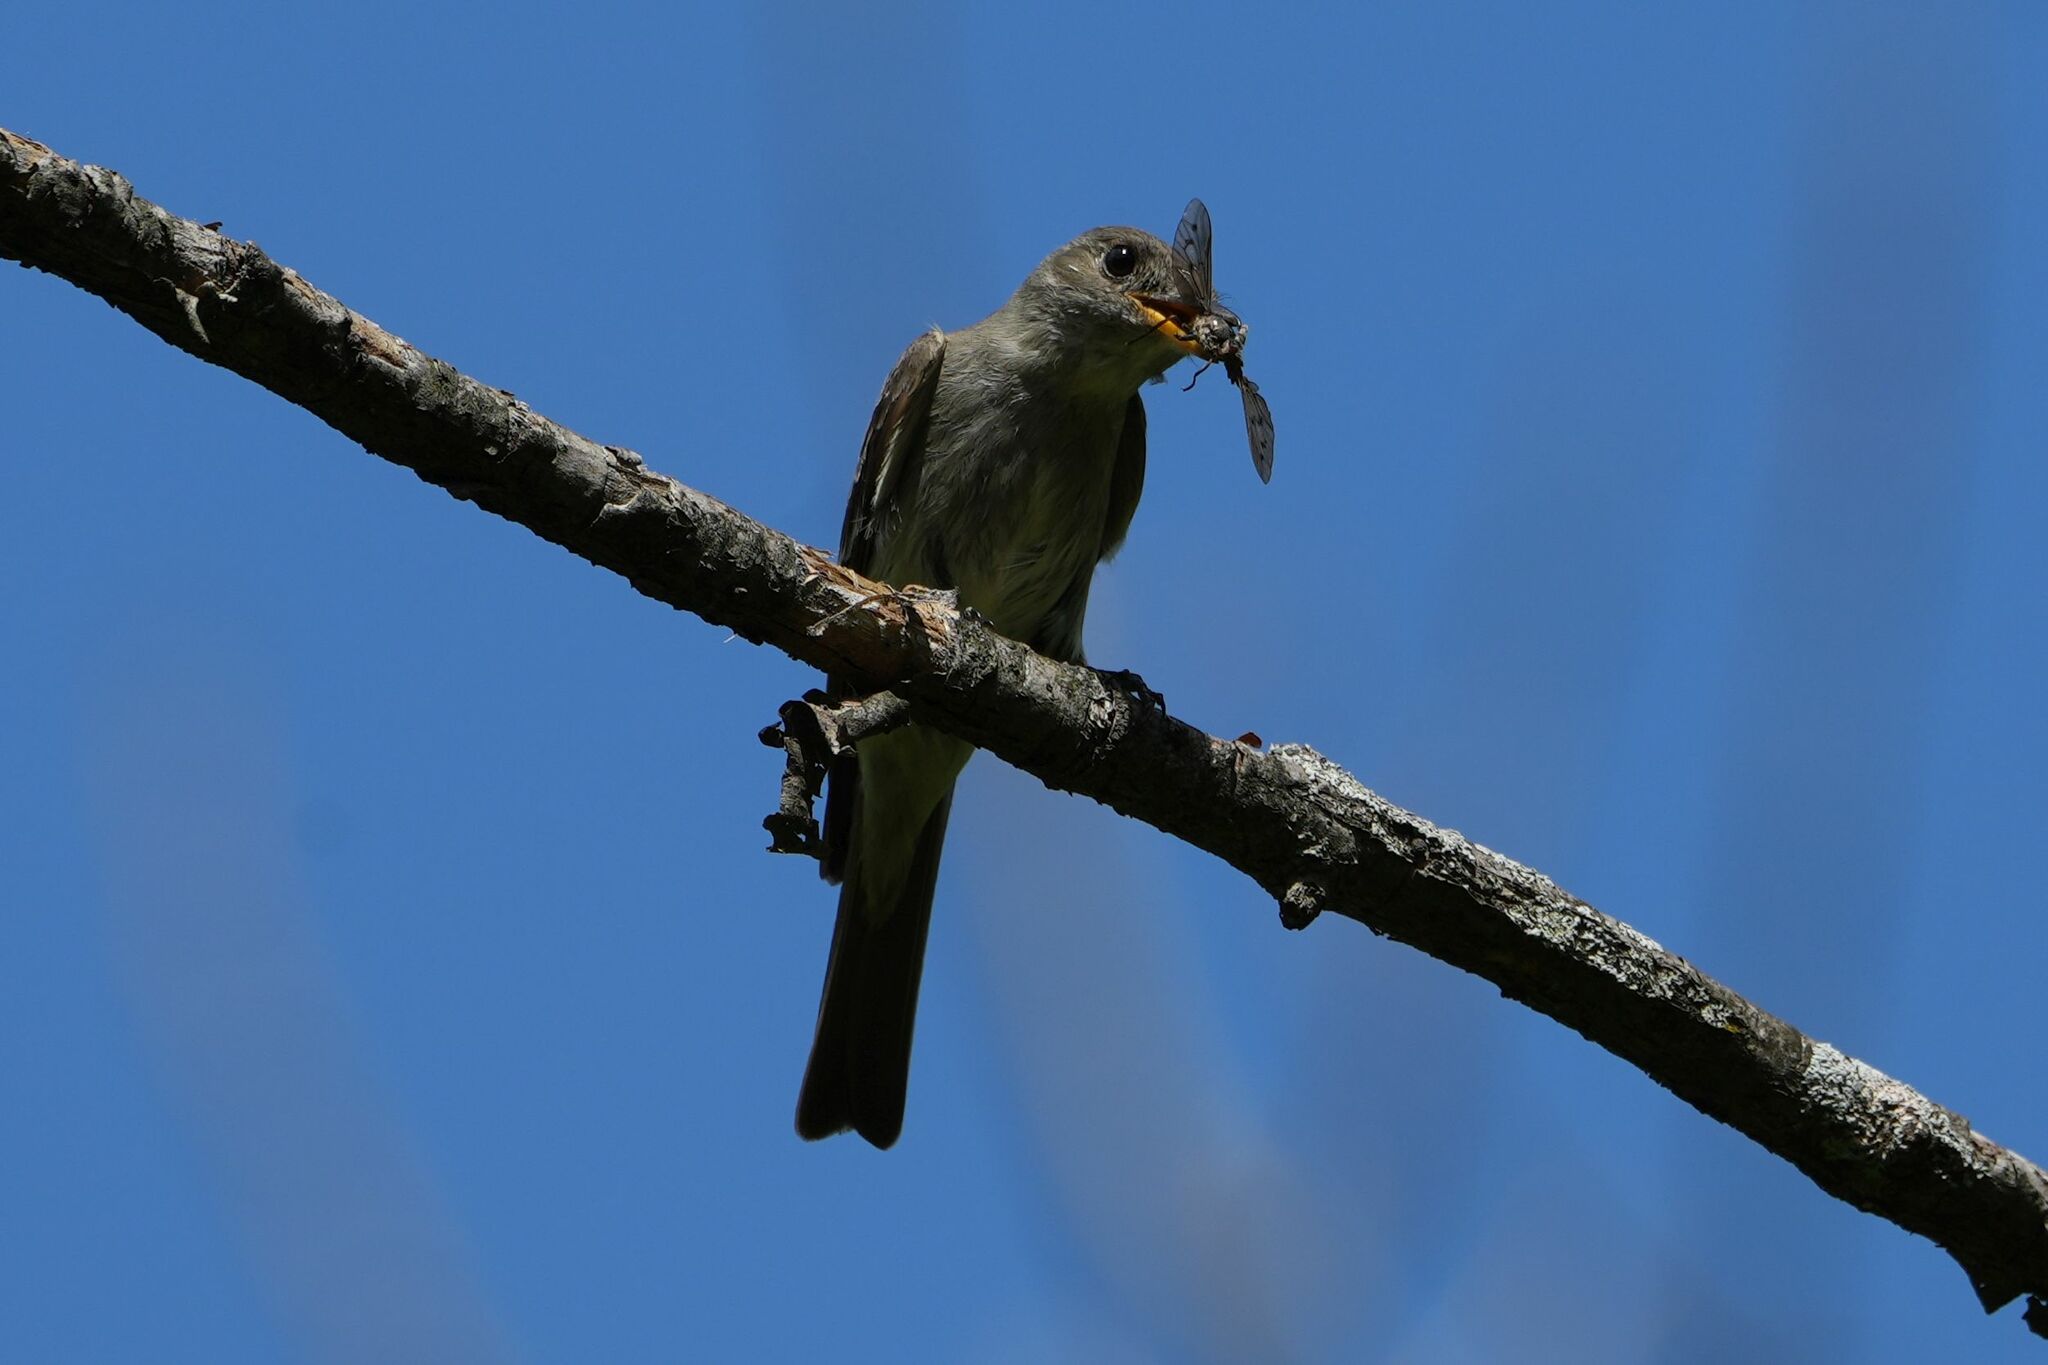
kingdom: Animalia
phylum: Chordata
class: Aves
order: Passeriformes
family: Tyrannidae
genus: Contopus
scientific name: Contopus virens
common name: Eastern wood-pewee
